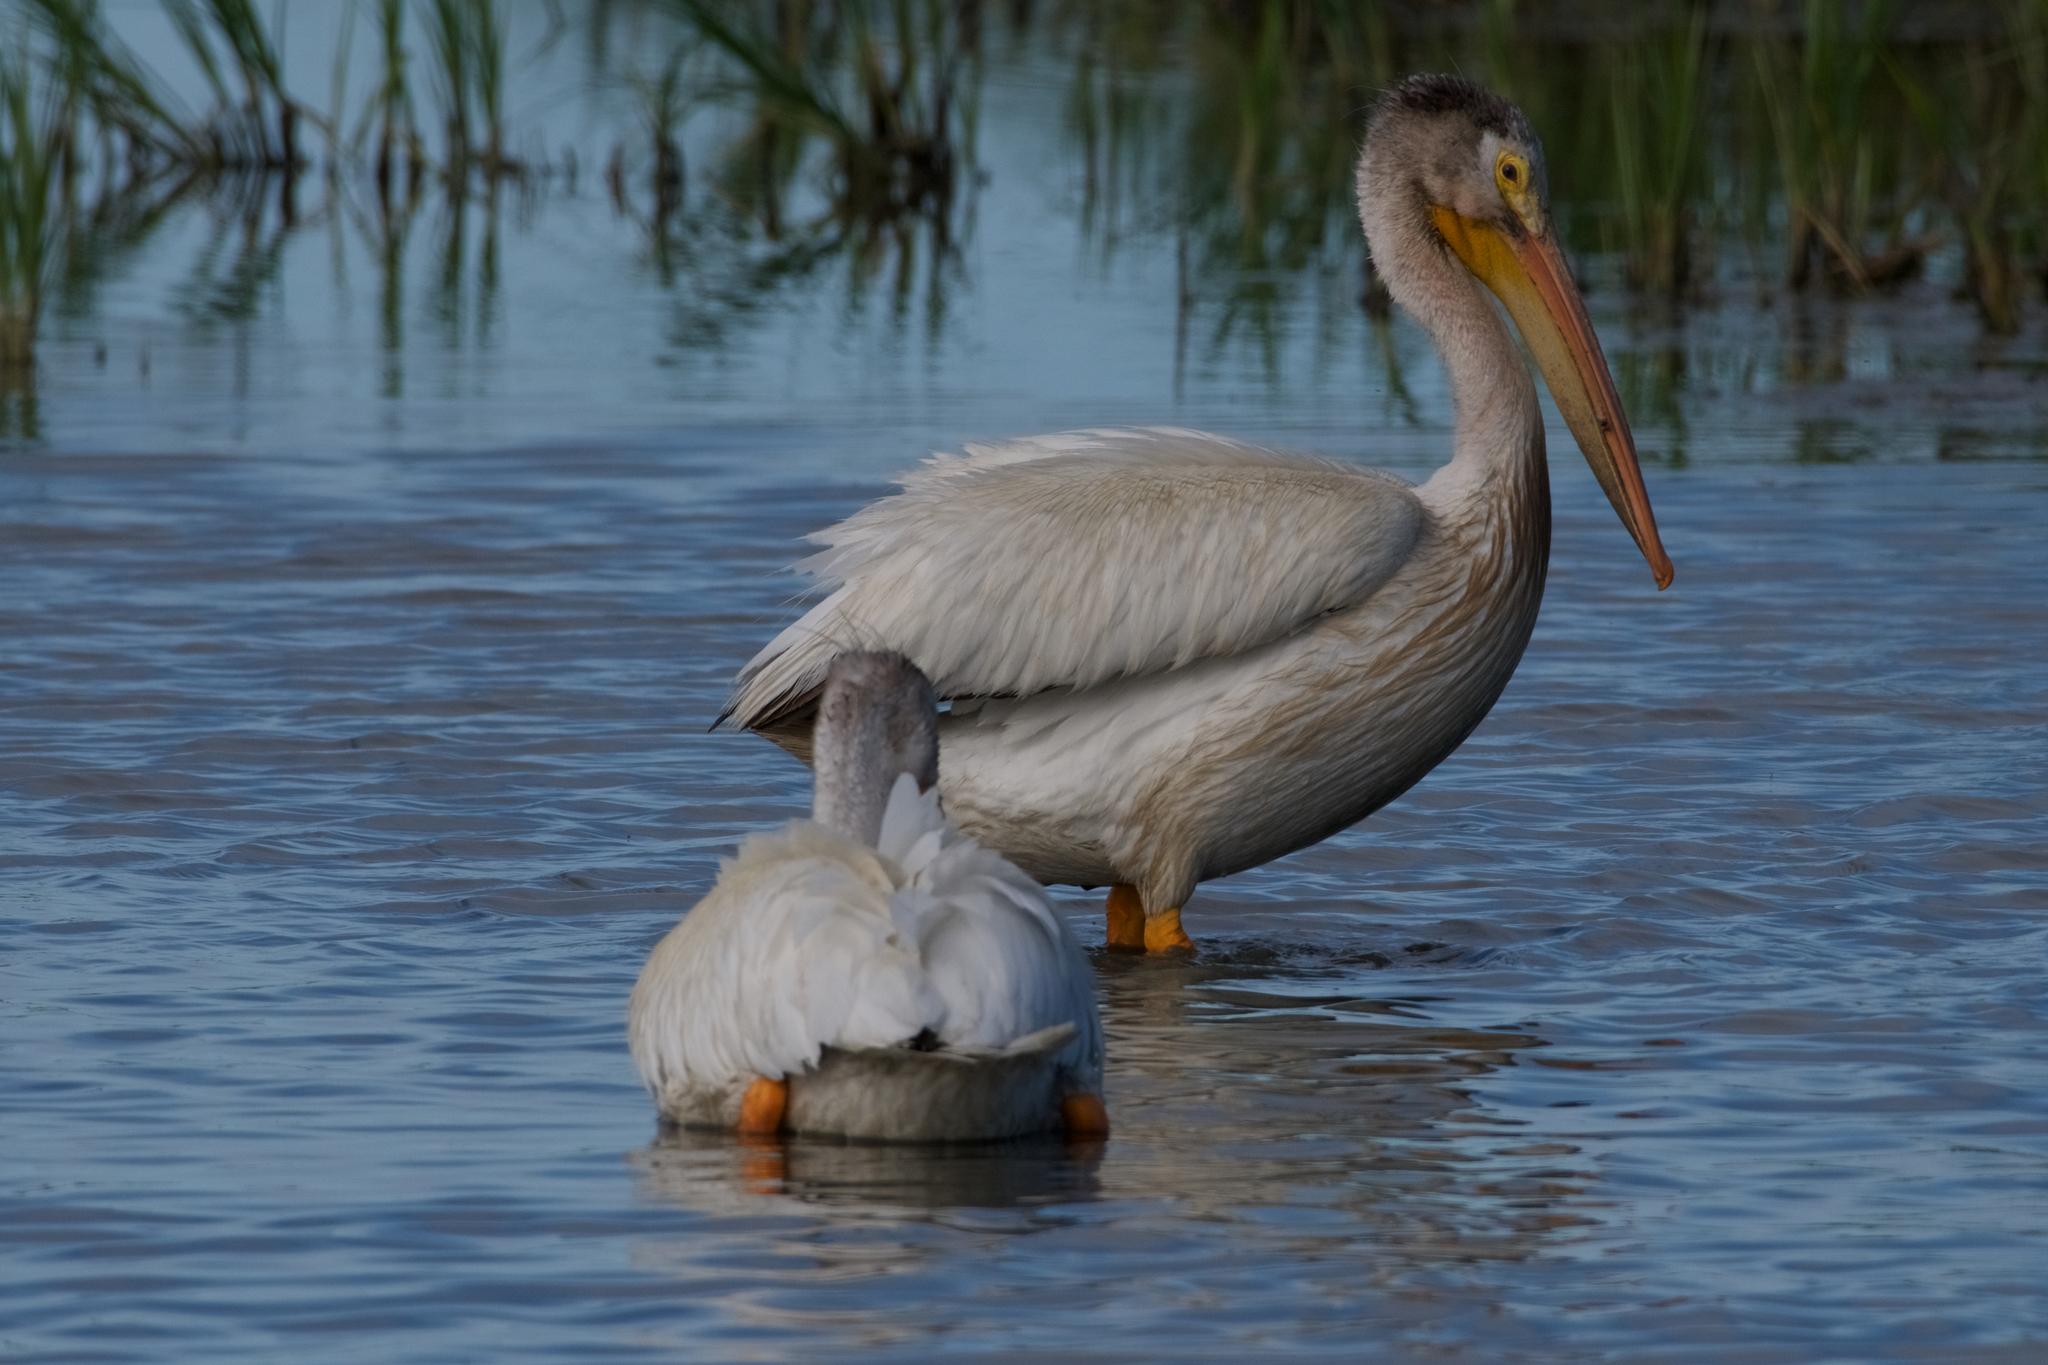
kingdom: Animalia
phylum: Chordata
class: Aves
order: Pelecaniformes
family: Pelecanidae
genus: Pelecanus
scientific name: Pelecanus erythrorhynchos
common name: American white pelican
